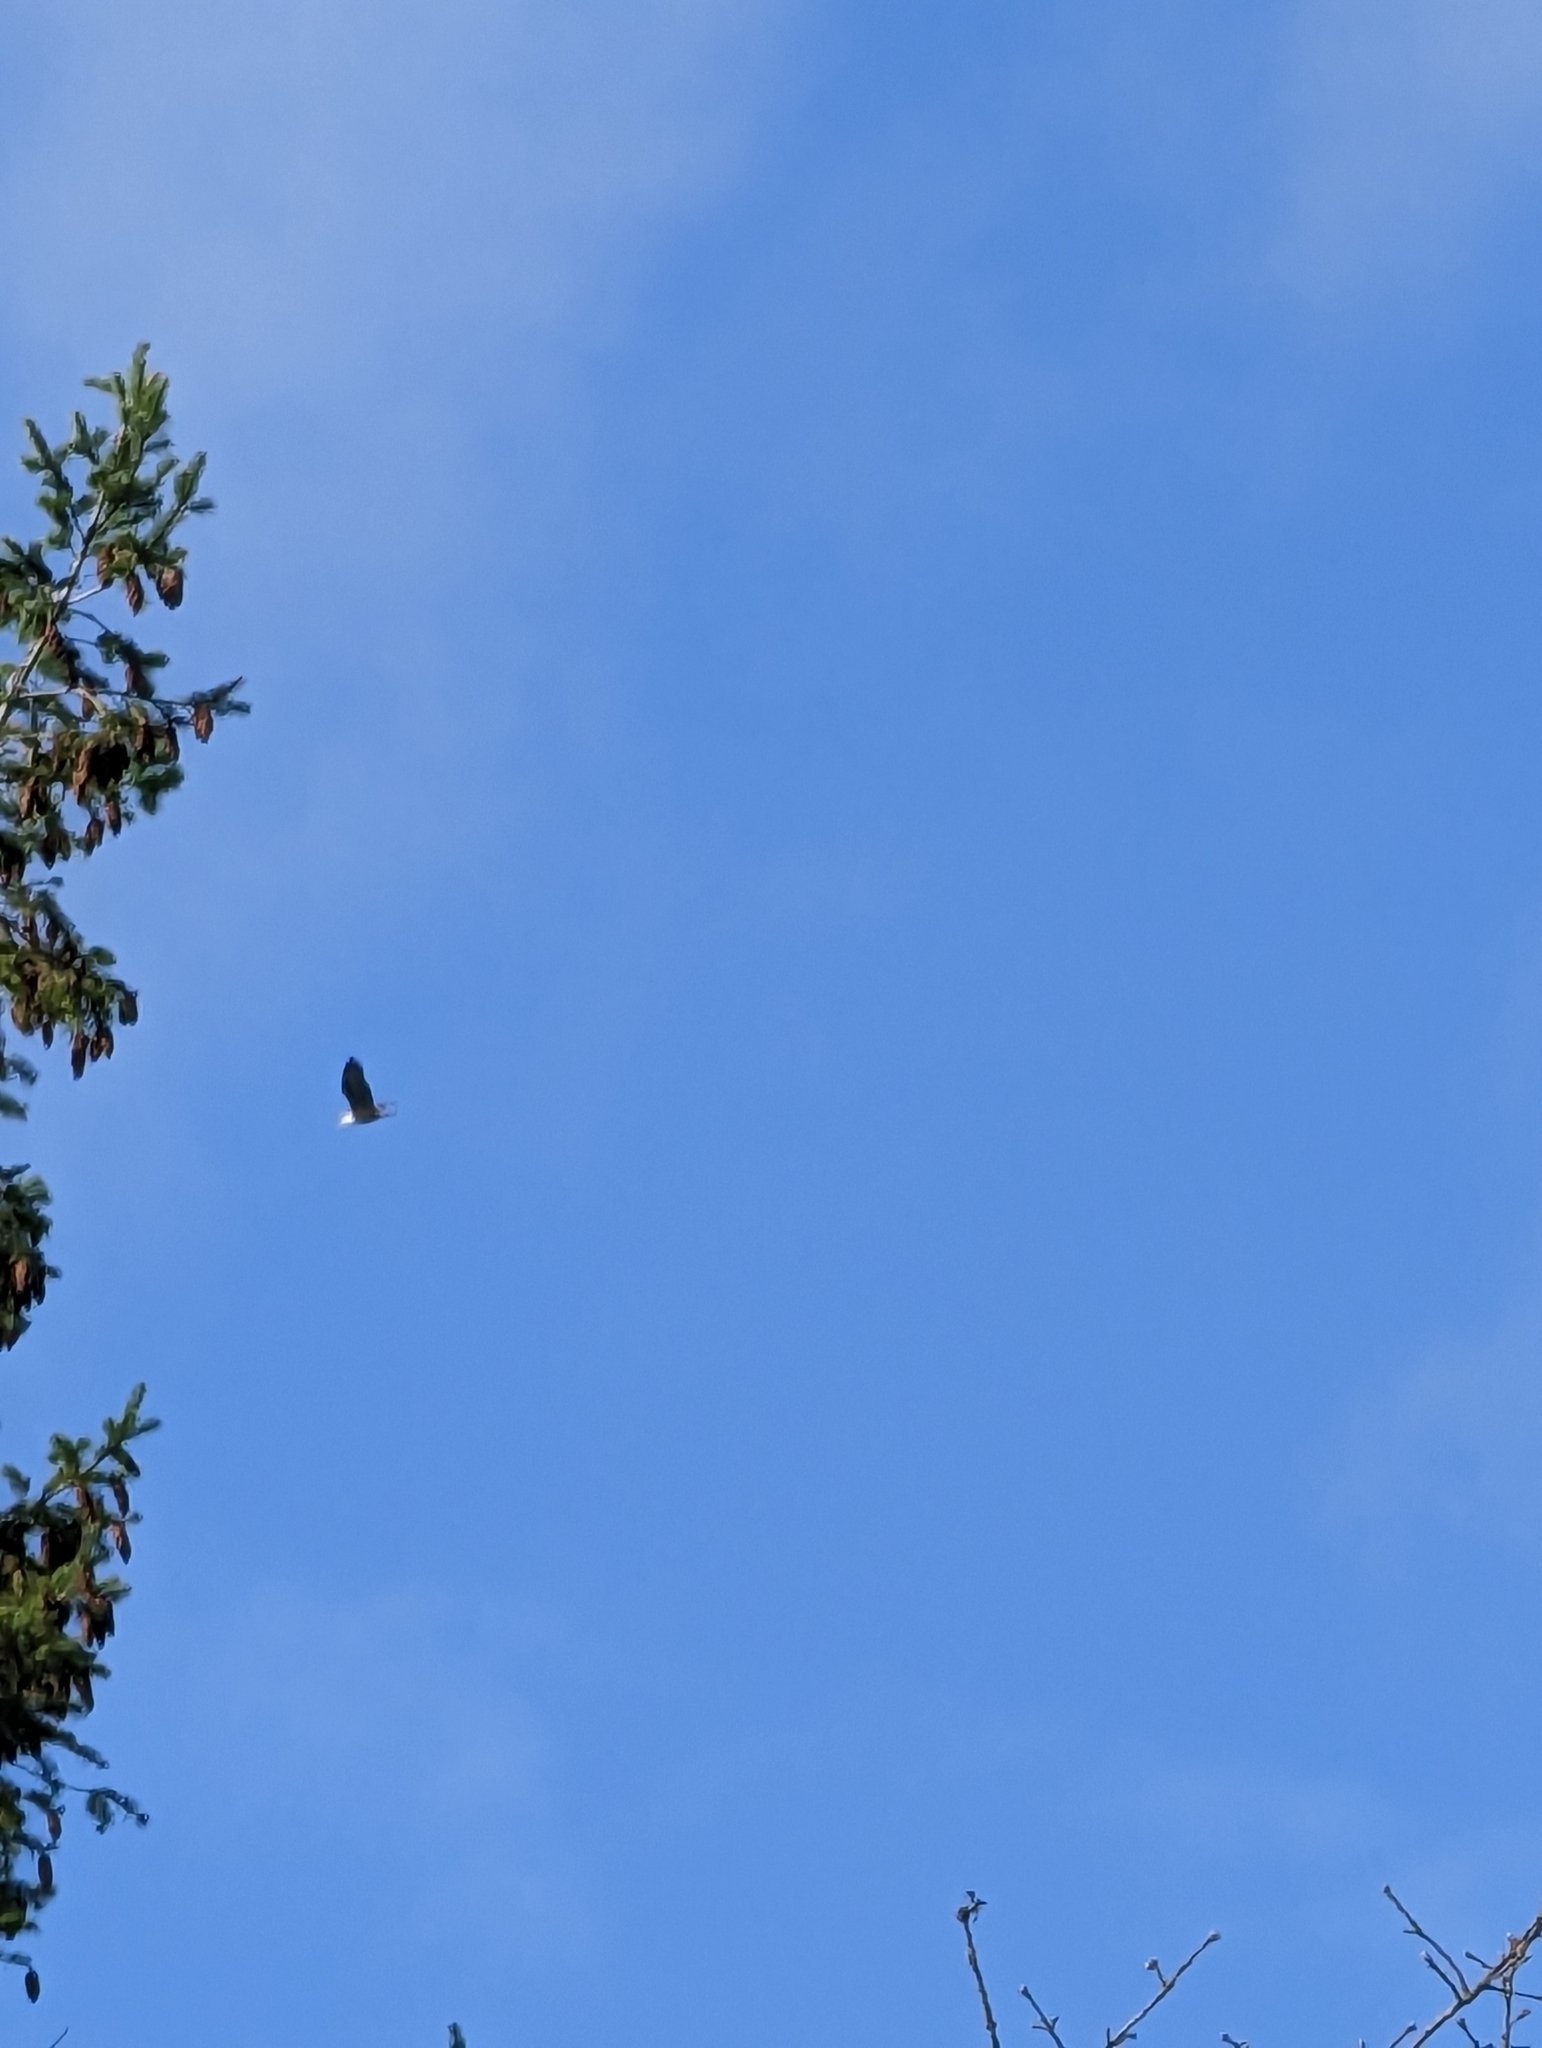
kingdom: Animalia
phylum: Chordata
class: Aves
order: Accipitriformes
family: Accipitridae
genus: Haliaeetus
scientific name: Haliaeetus leucocephalus
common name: Bald eagle
